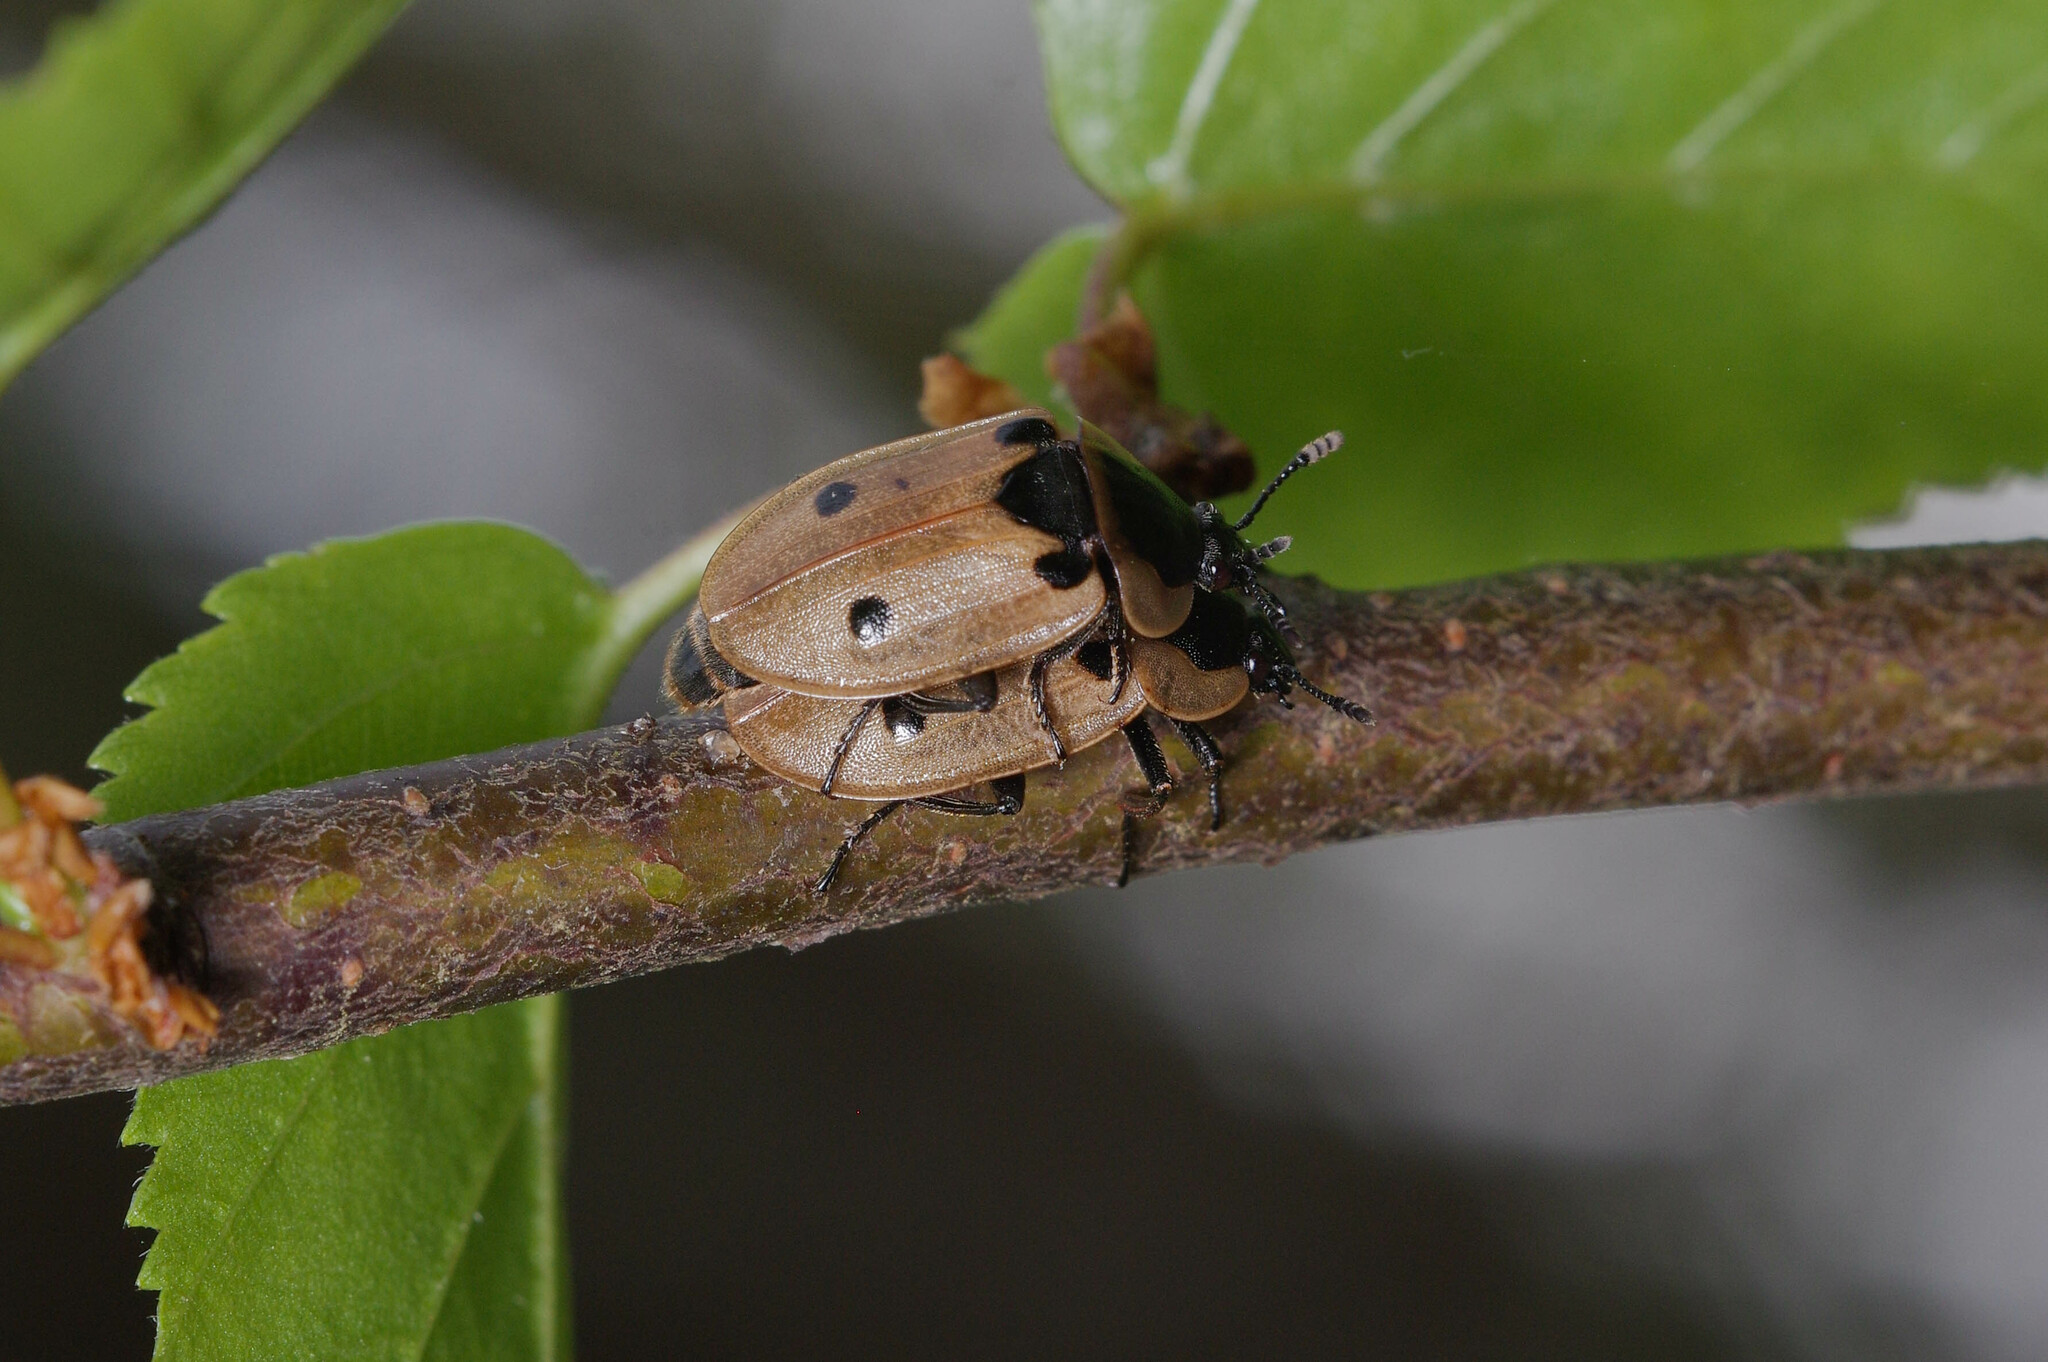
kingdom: Animalia
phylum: Arthropoda
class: Insecta
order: Coleoptera
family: Staphylinidae
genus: Dendroxena
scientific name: Dendroxena quadrimaculata
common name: Carrion beetle
